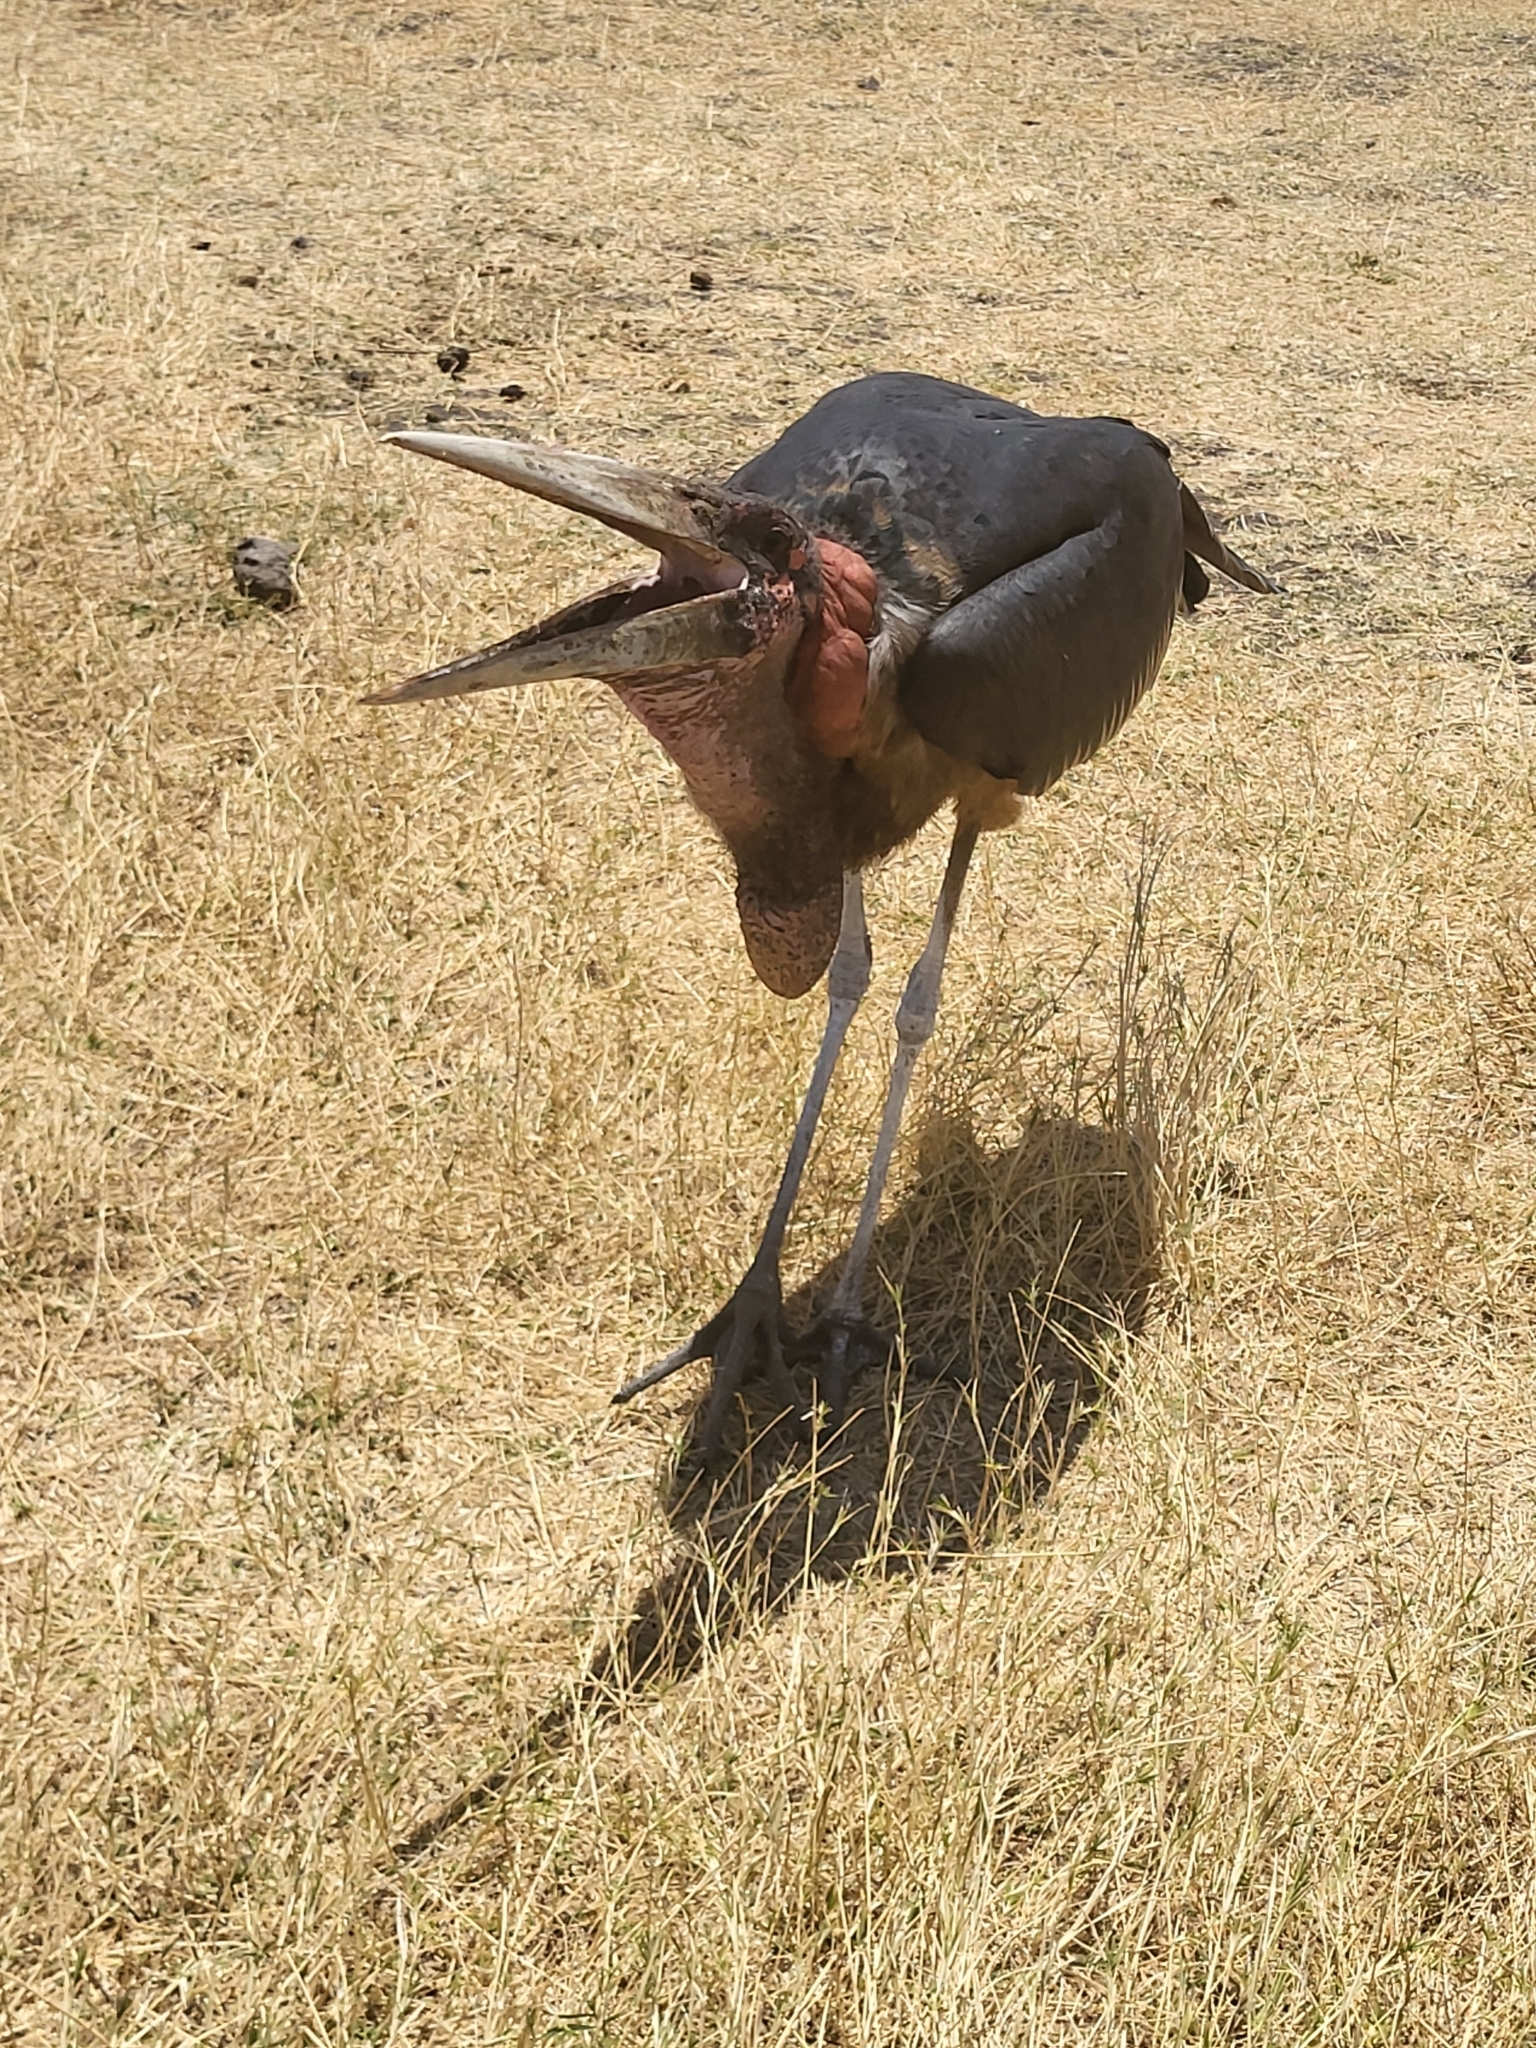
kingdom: Animalia
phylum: Chordata
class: Aves
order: Ciconiiformes
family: Ciconiidae
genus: Leptoptilos
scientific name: Leptoptilos crumenifer
